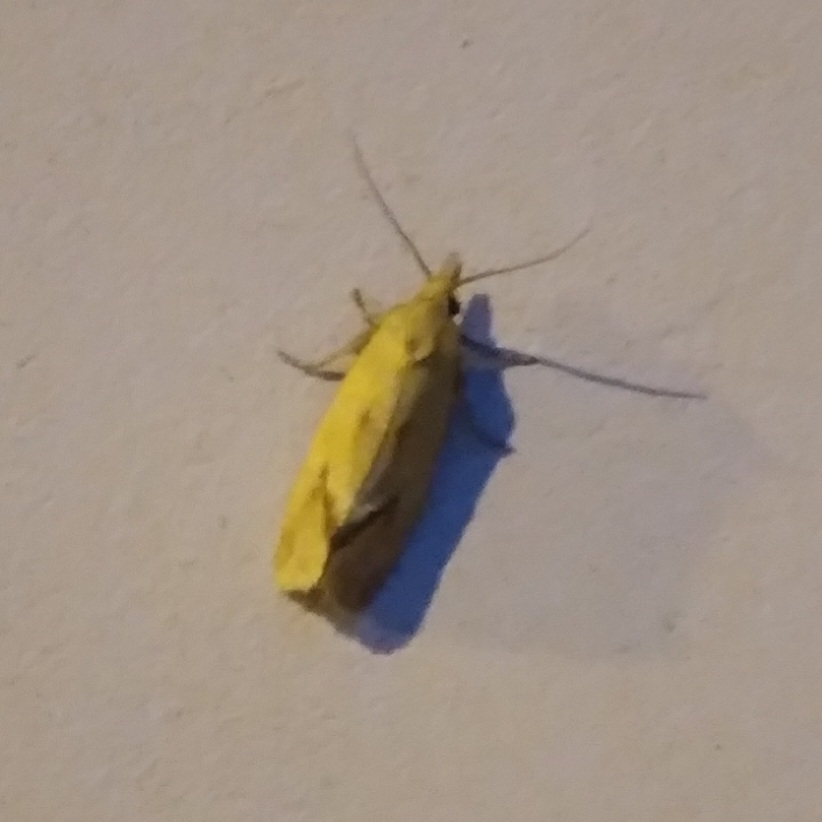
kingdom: Animalia
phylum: Arthropoda
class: Insecta
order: Lepidoptera
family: Tortricidae
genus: Agapeta
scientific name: Agapeta hamana
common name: Common yellow conch
